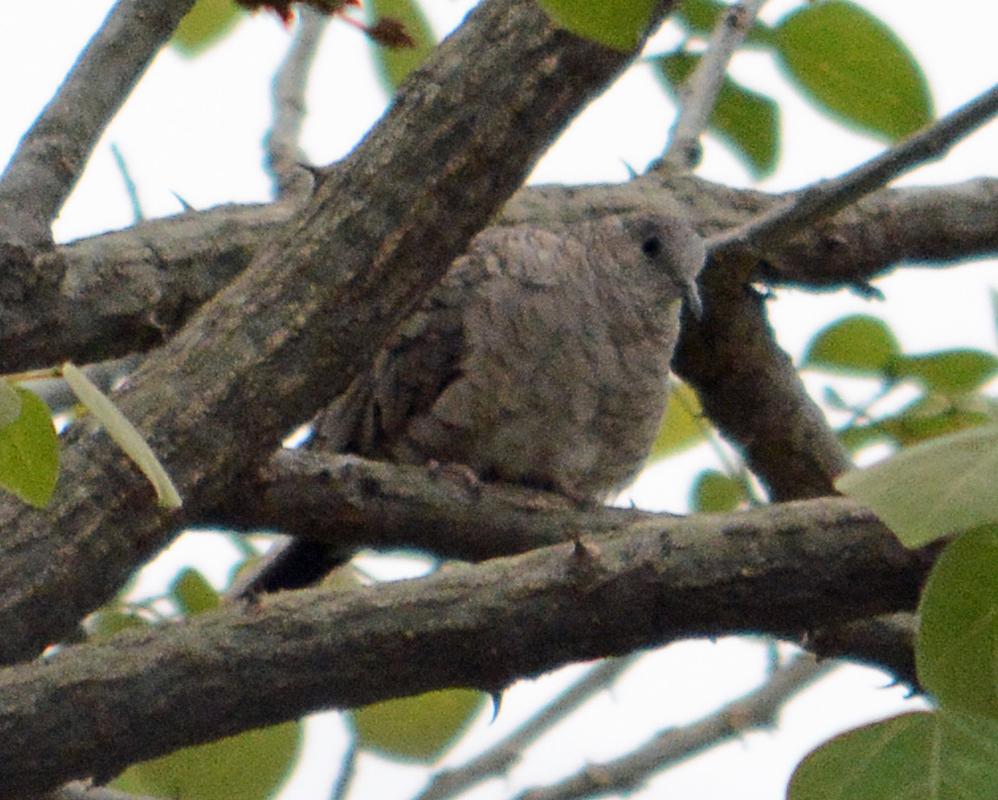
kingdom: Animalia
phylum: Chordata
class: Aves
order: Columbiformes
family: Columbidae
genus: Columbina
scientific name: Columbina inca
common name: Inca dove
